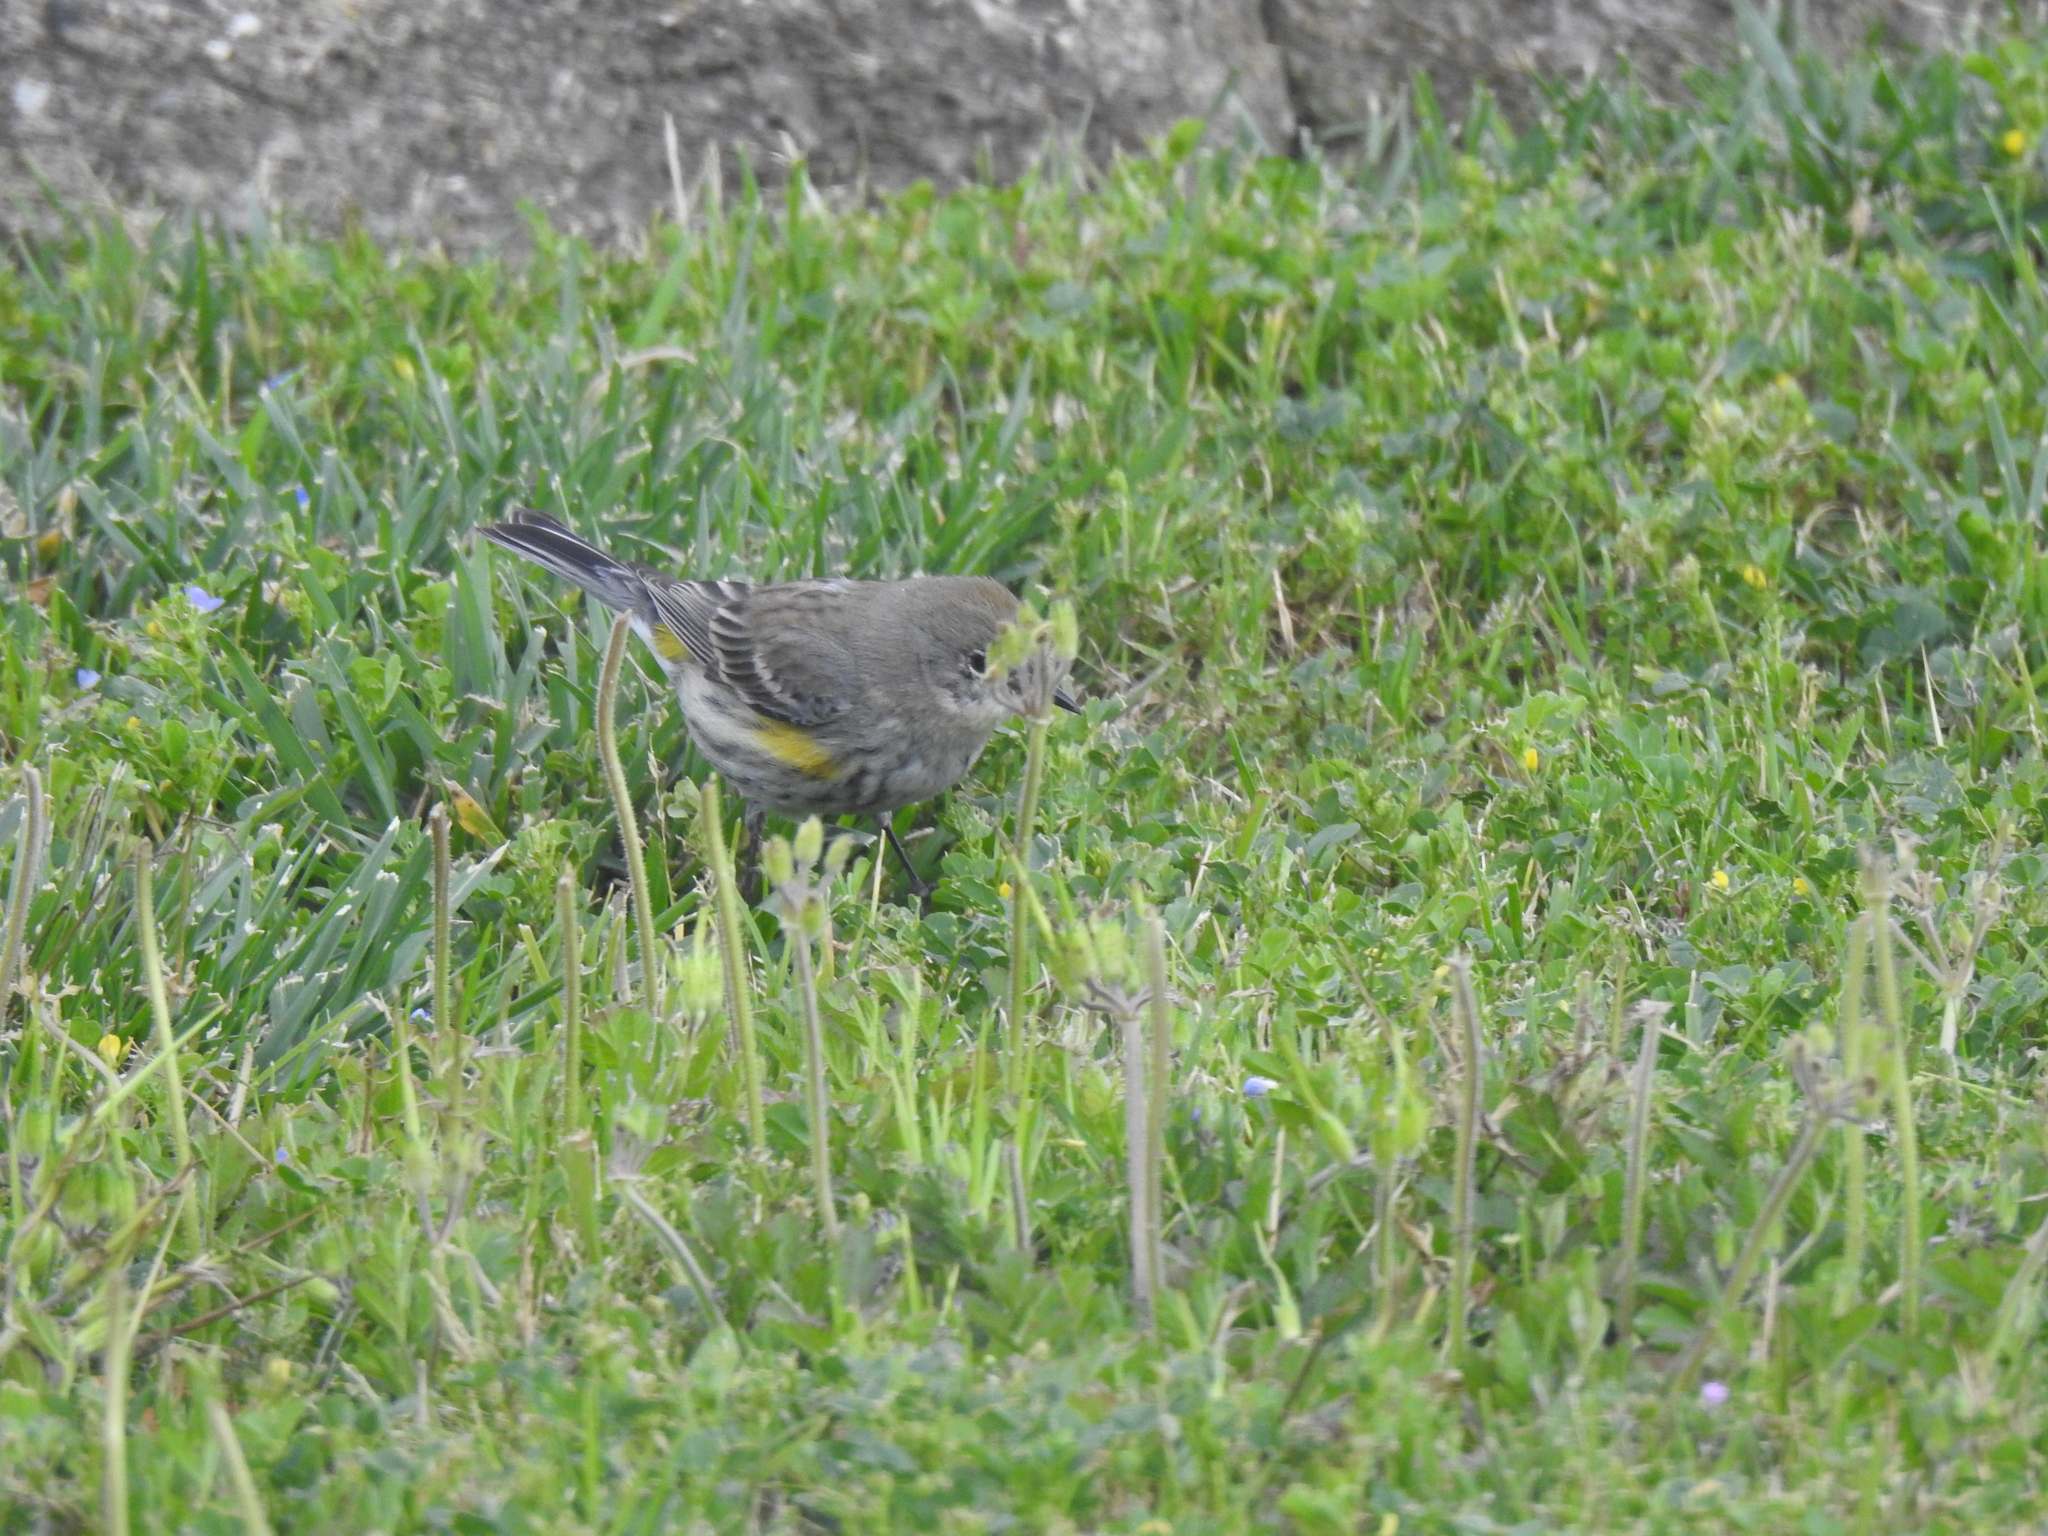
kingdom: Animalia
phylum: Chordata
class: Aves
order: Passeriformes
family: Parulidae
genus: Setophaga
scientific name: Setophaga coronata
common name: Myrtle warbler
